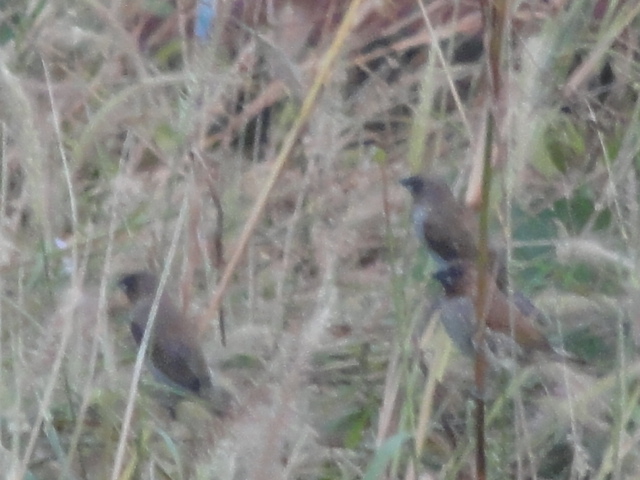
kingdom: Animalia
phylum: Chordata
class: Aves
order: Passeriformes
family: Estrildidae
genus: Lonchura
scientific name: Lonchura punctulata
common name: Scaly-breasted munia
